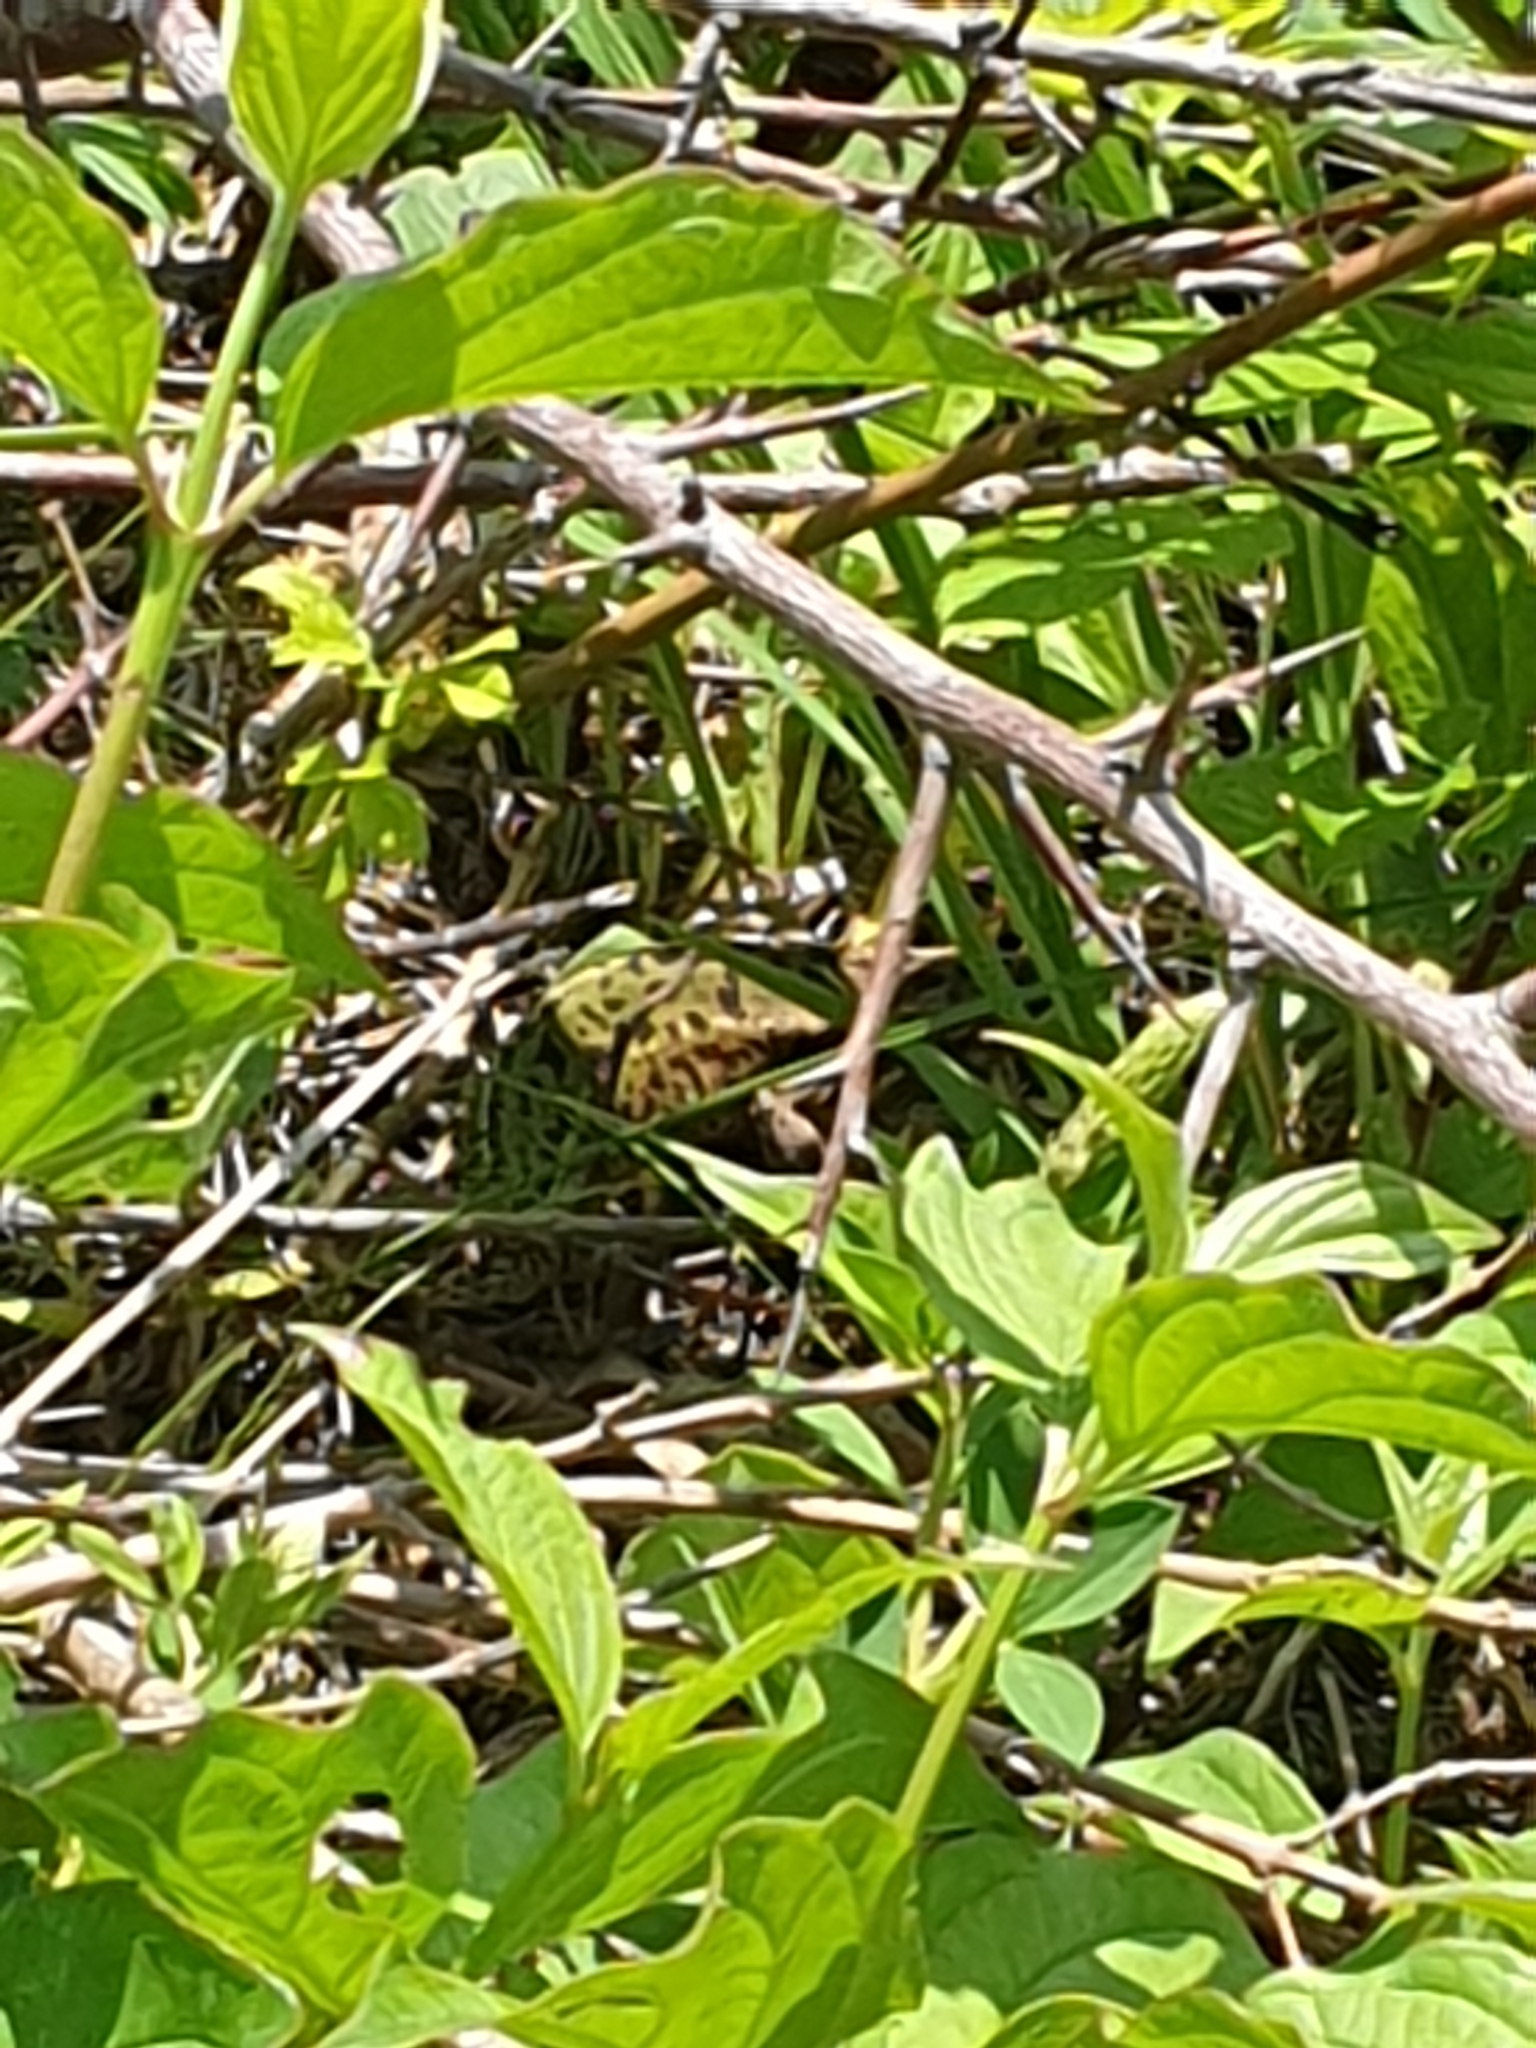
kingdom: Animalia
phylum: Chordata
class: Squamata
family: Lacertidae
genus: Lacerta
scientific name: Lacerta viridis
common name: European green lizard
